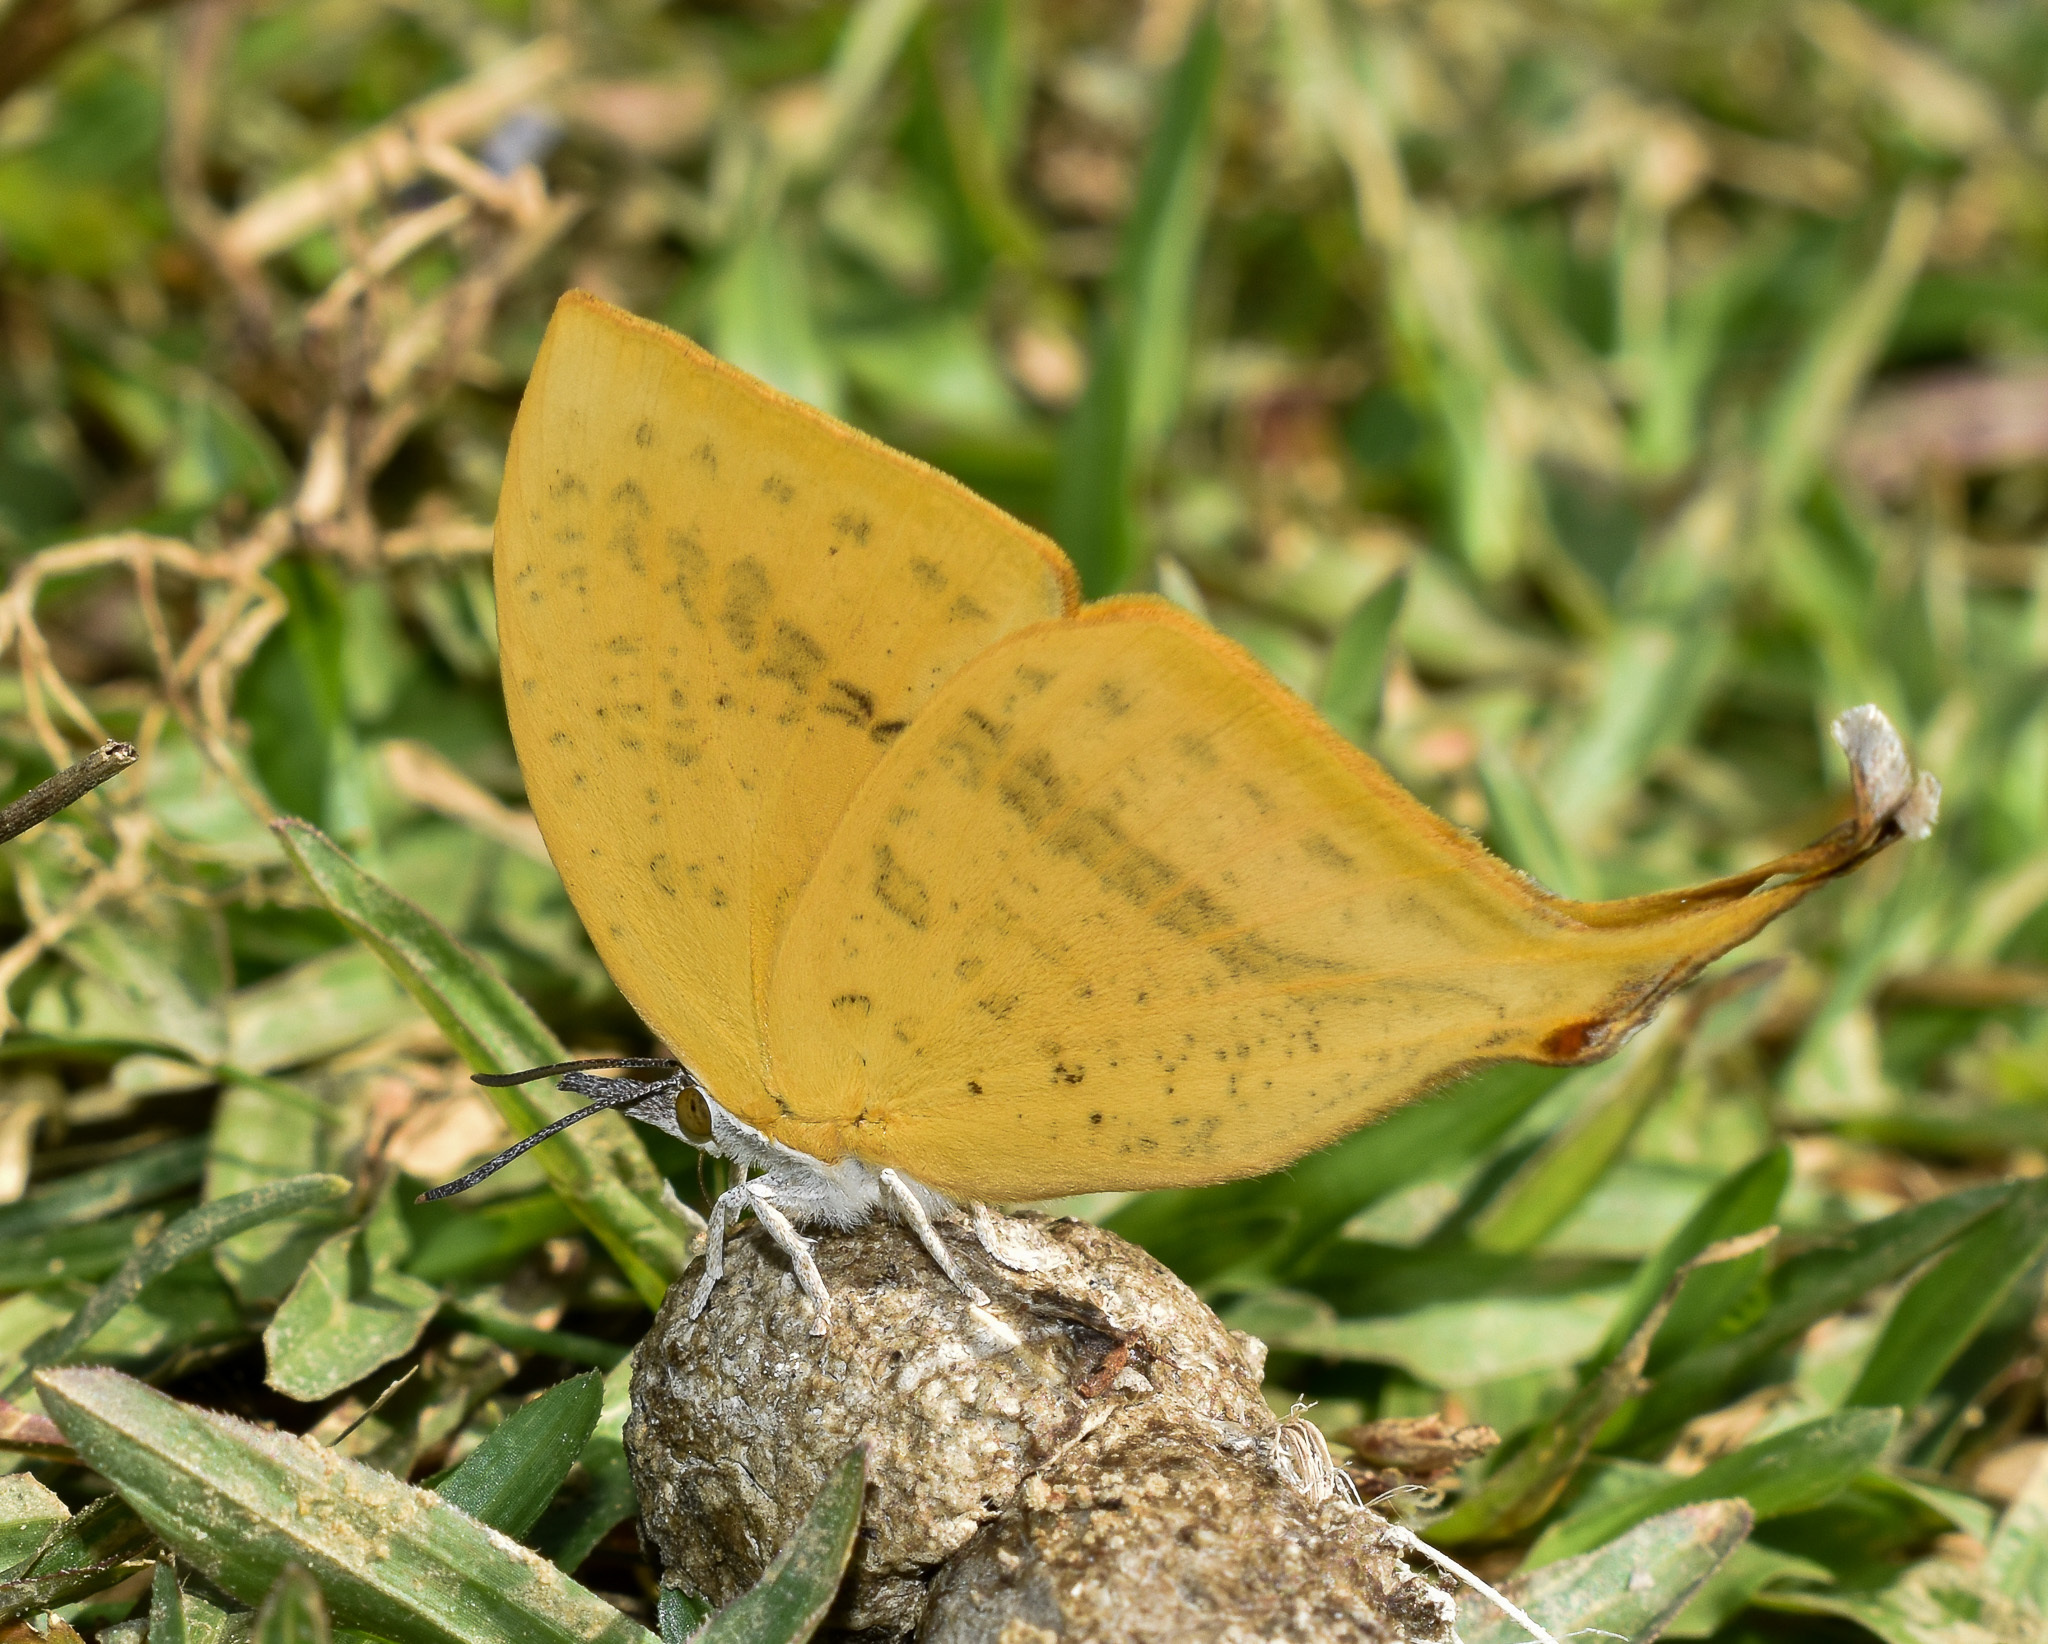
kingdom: Animalia
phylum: Arthropoda
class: Insecta
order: Lepidoptera
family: Lycaenidae
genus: Loxura
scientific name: Loxura atymnus
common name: Common yamfly
